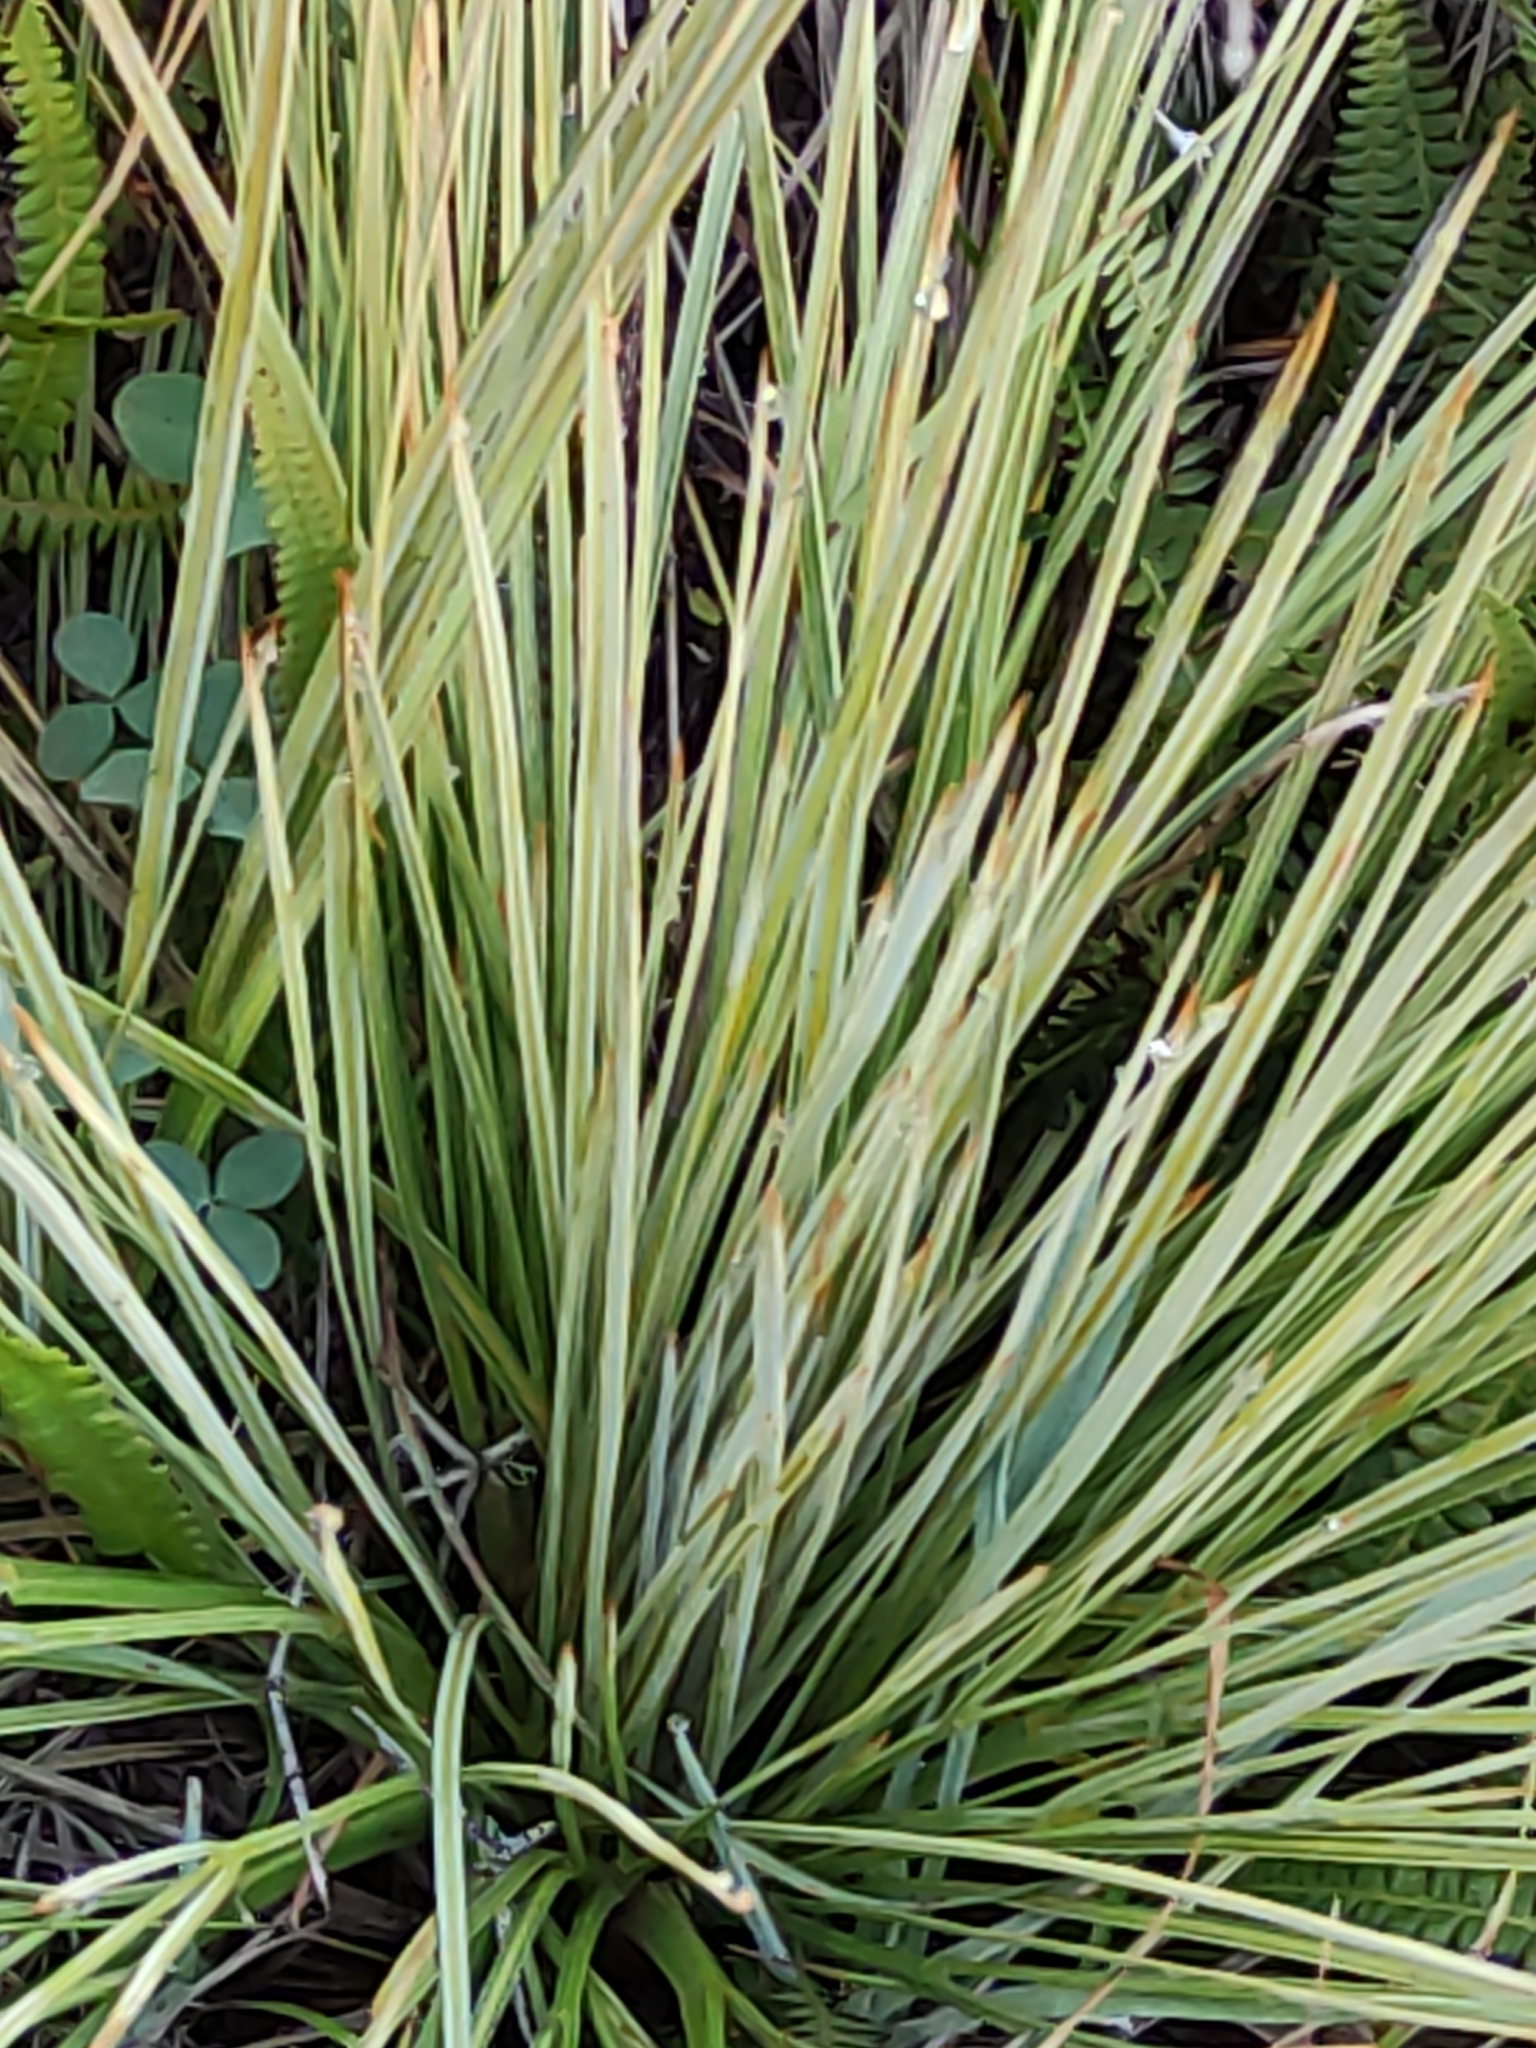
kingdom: Plantae
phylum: Tracheophyta
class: Magnoliopsida
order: Apiales
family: Apiaceae
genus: Aciphylla
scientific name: Aciphylla subflabellata
